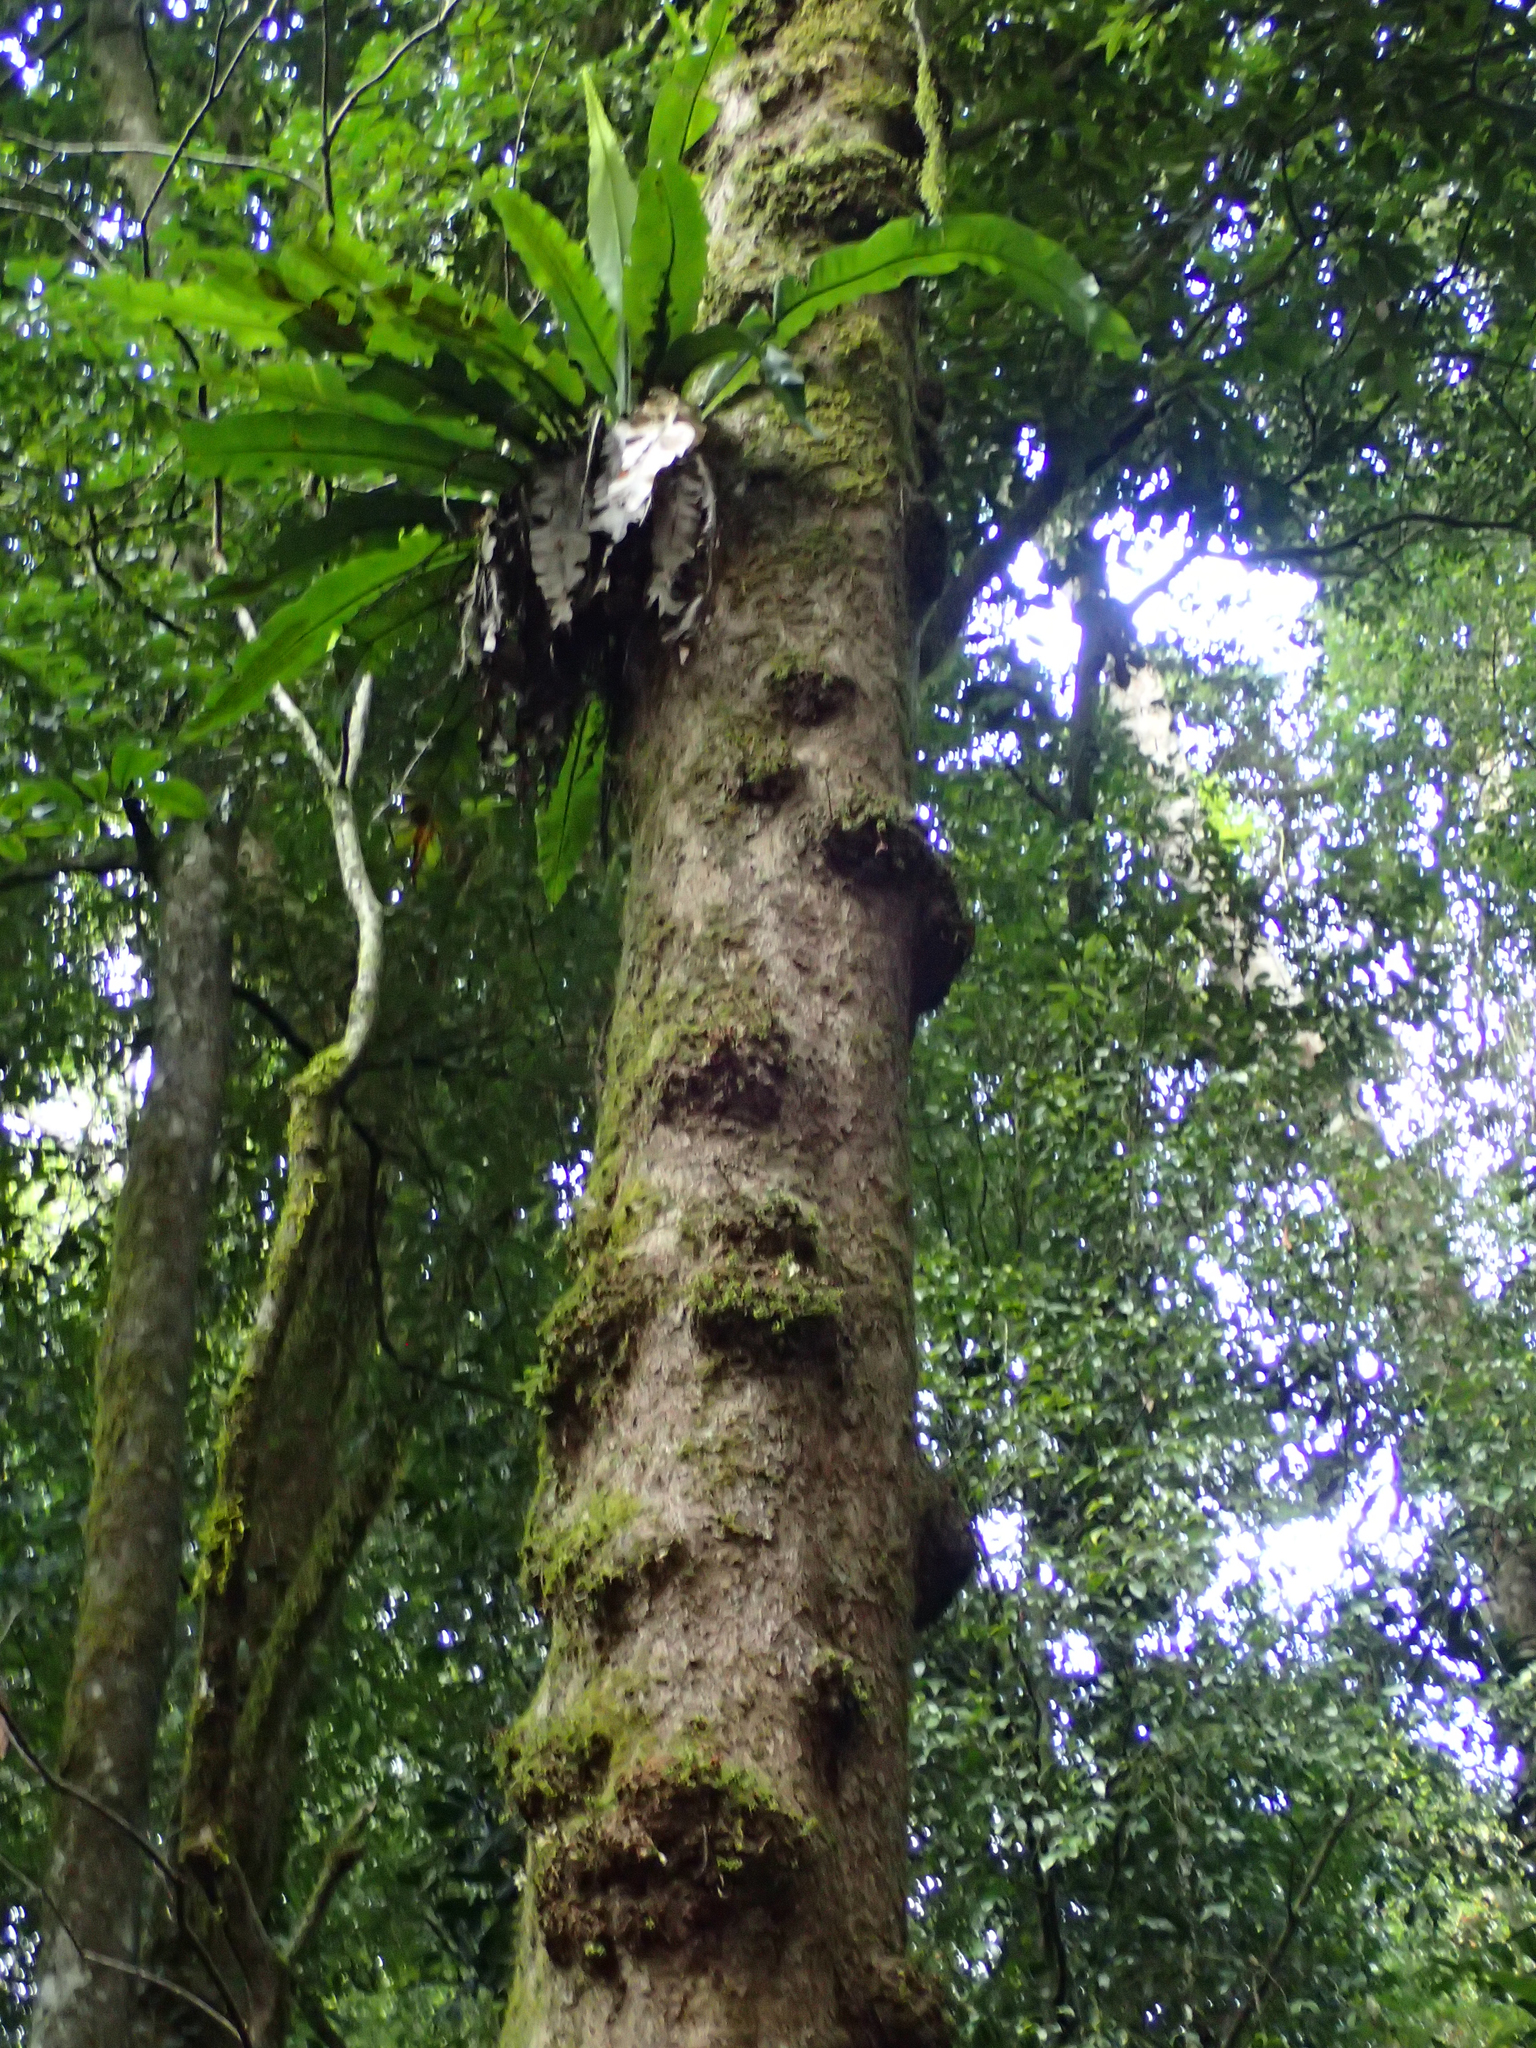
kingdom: Plantae
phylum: Tracheophyta
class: Magnoliopsida
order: Sapindales
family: Meliaceae
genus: Epicharis
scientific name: Epicharis parasitica
